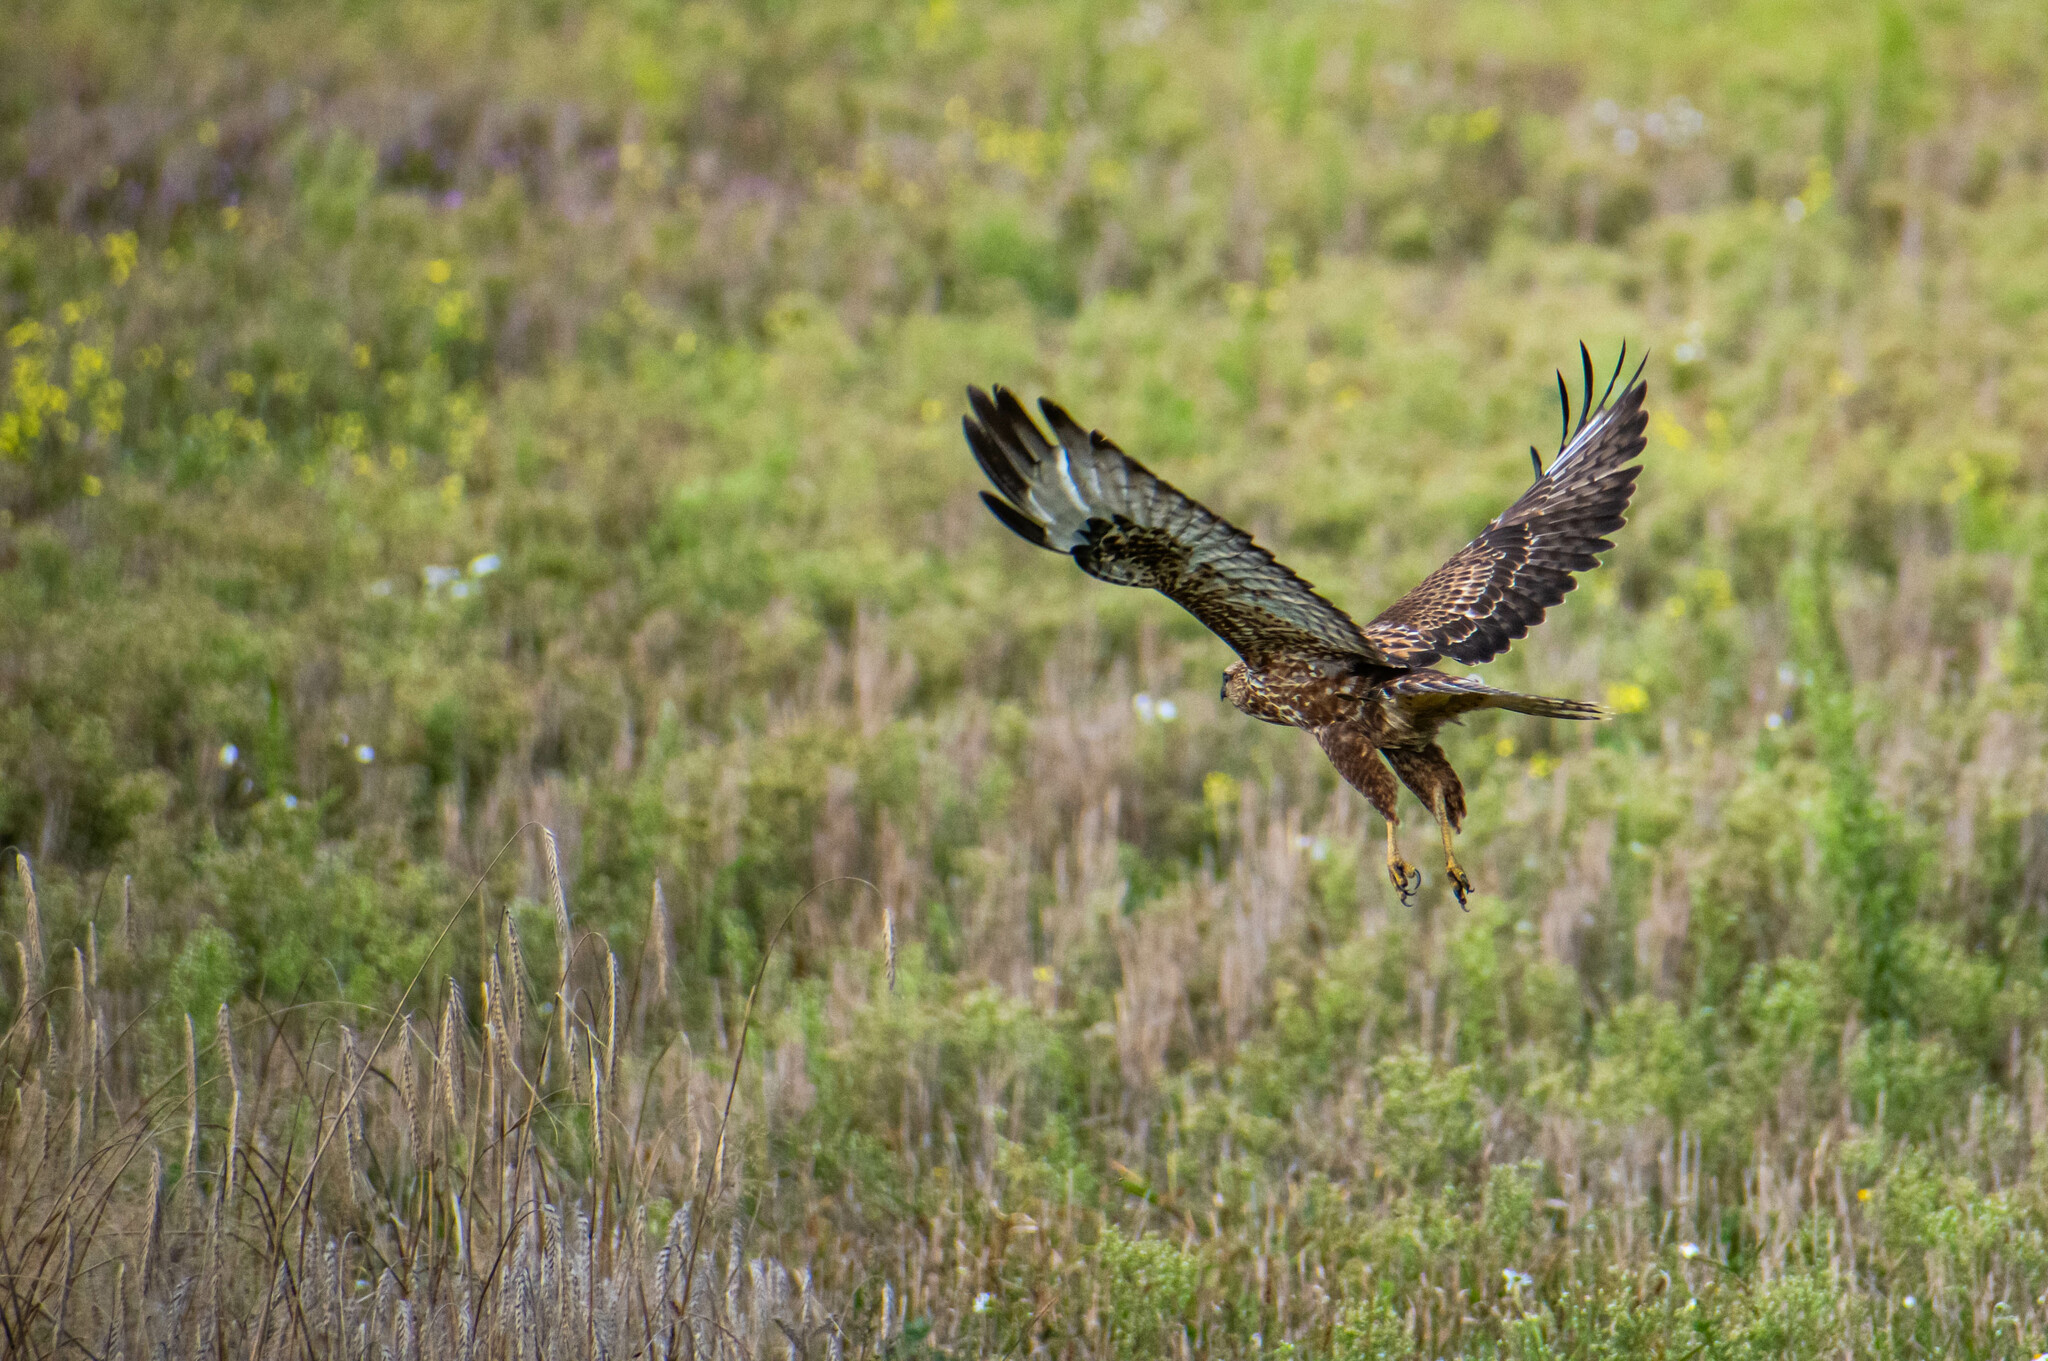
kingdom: Animalia
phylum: Chordata
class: Aves
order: Accipitriformes
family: Accipitridae
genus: Buteo
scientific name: Buteo buteo
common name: Common buzzard
